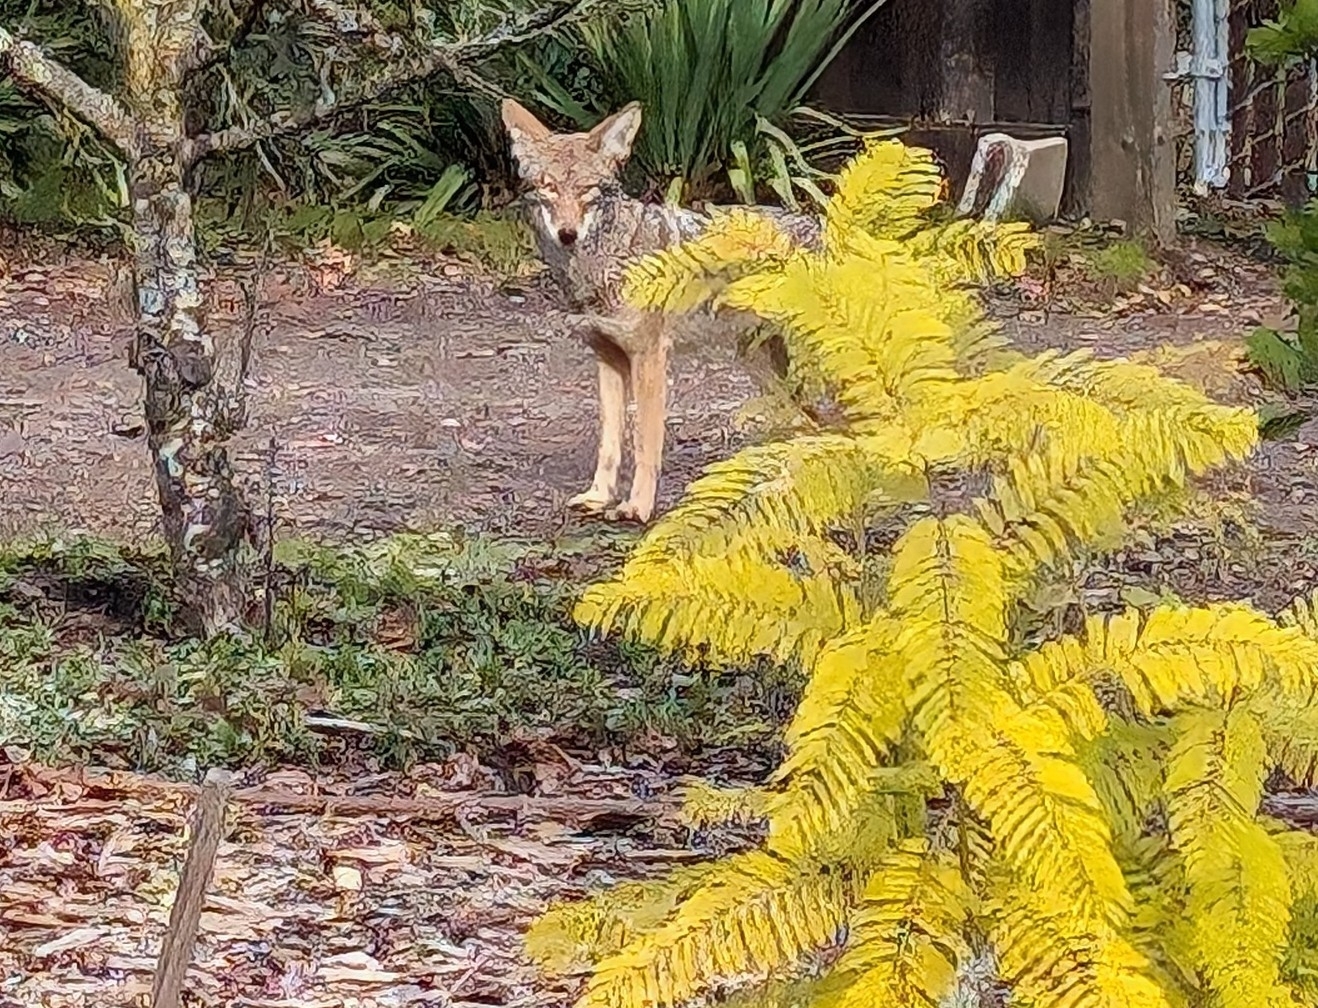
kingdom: Animalia
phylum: Chordata
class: Mammalia
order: Carnivora
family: Canidae
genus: Canis
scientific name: Canis latrans
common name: Coyote
